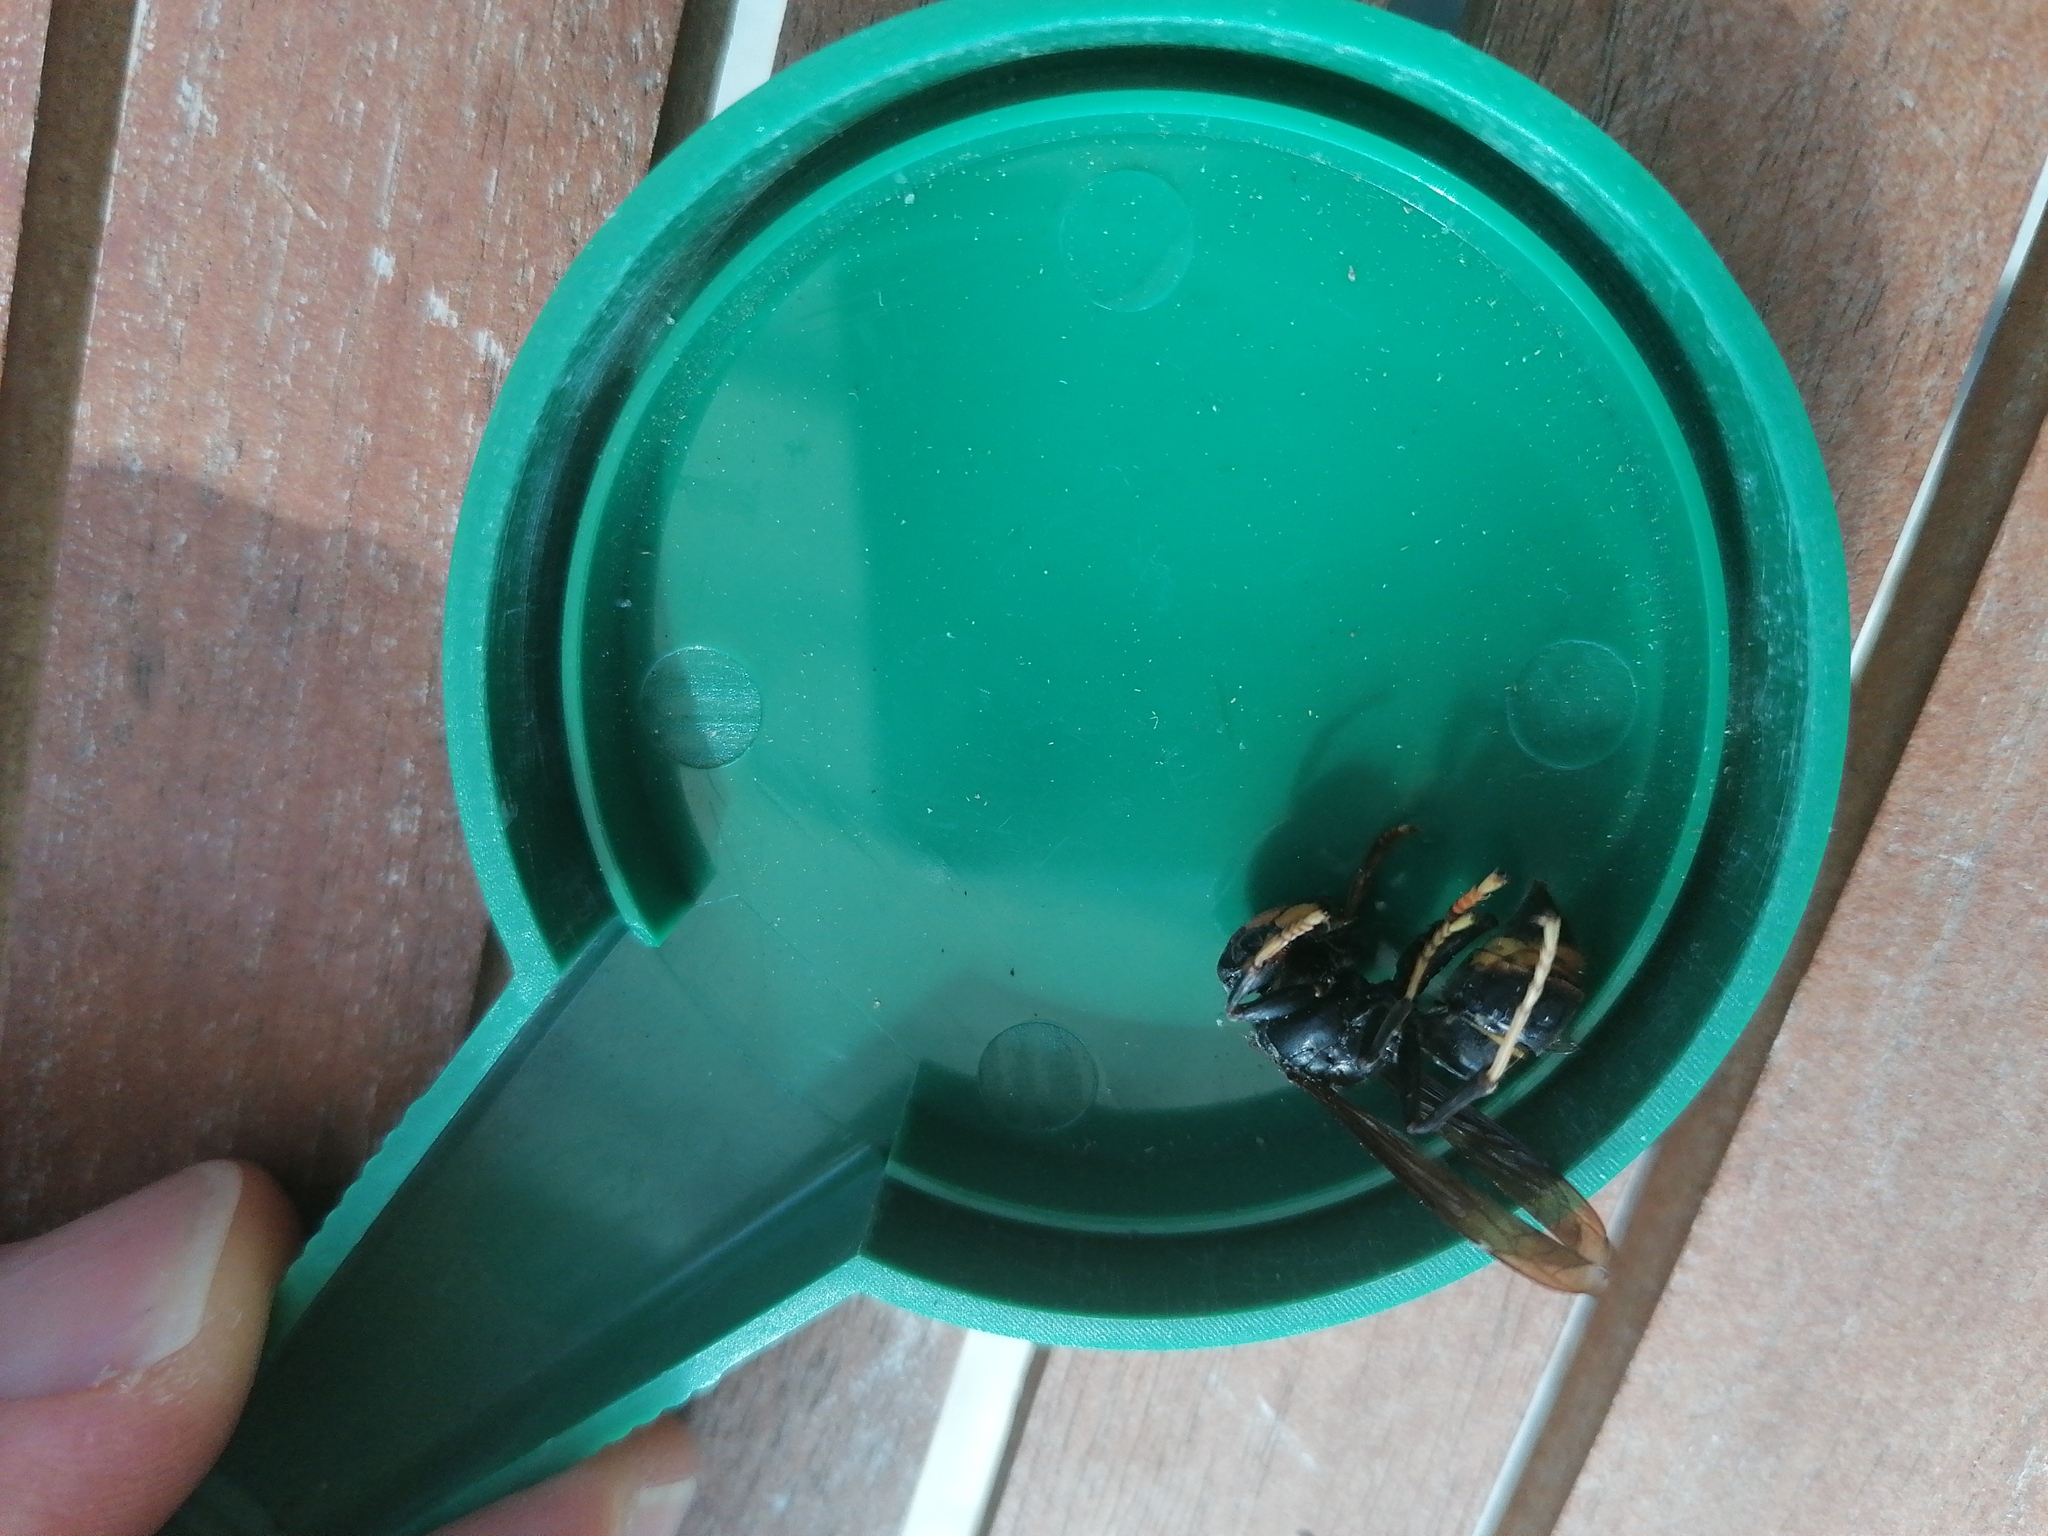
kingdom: Animalia
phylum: Arthropoda
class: Insecta
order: Hymenoptera
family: Vespidae
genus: Vespa
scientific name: Vespa velutina
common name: Asian hornet
